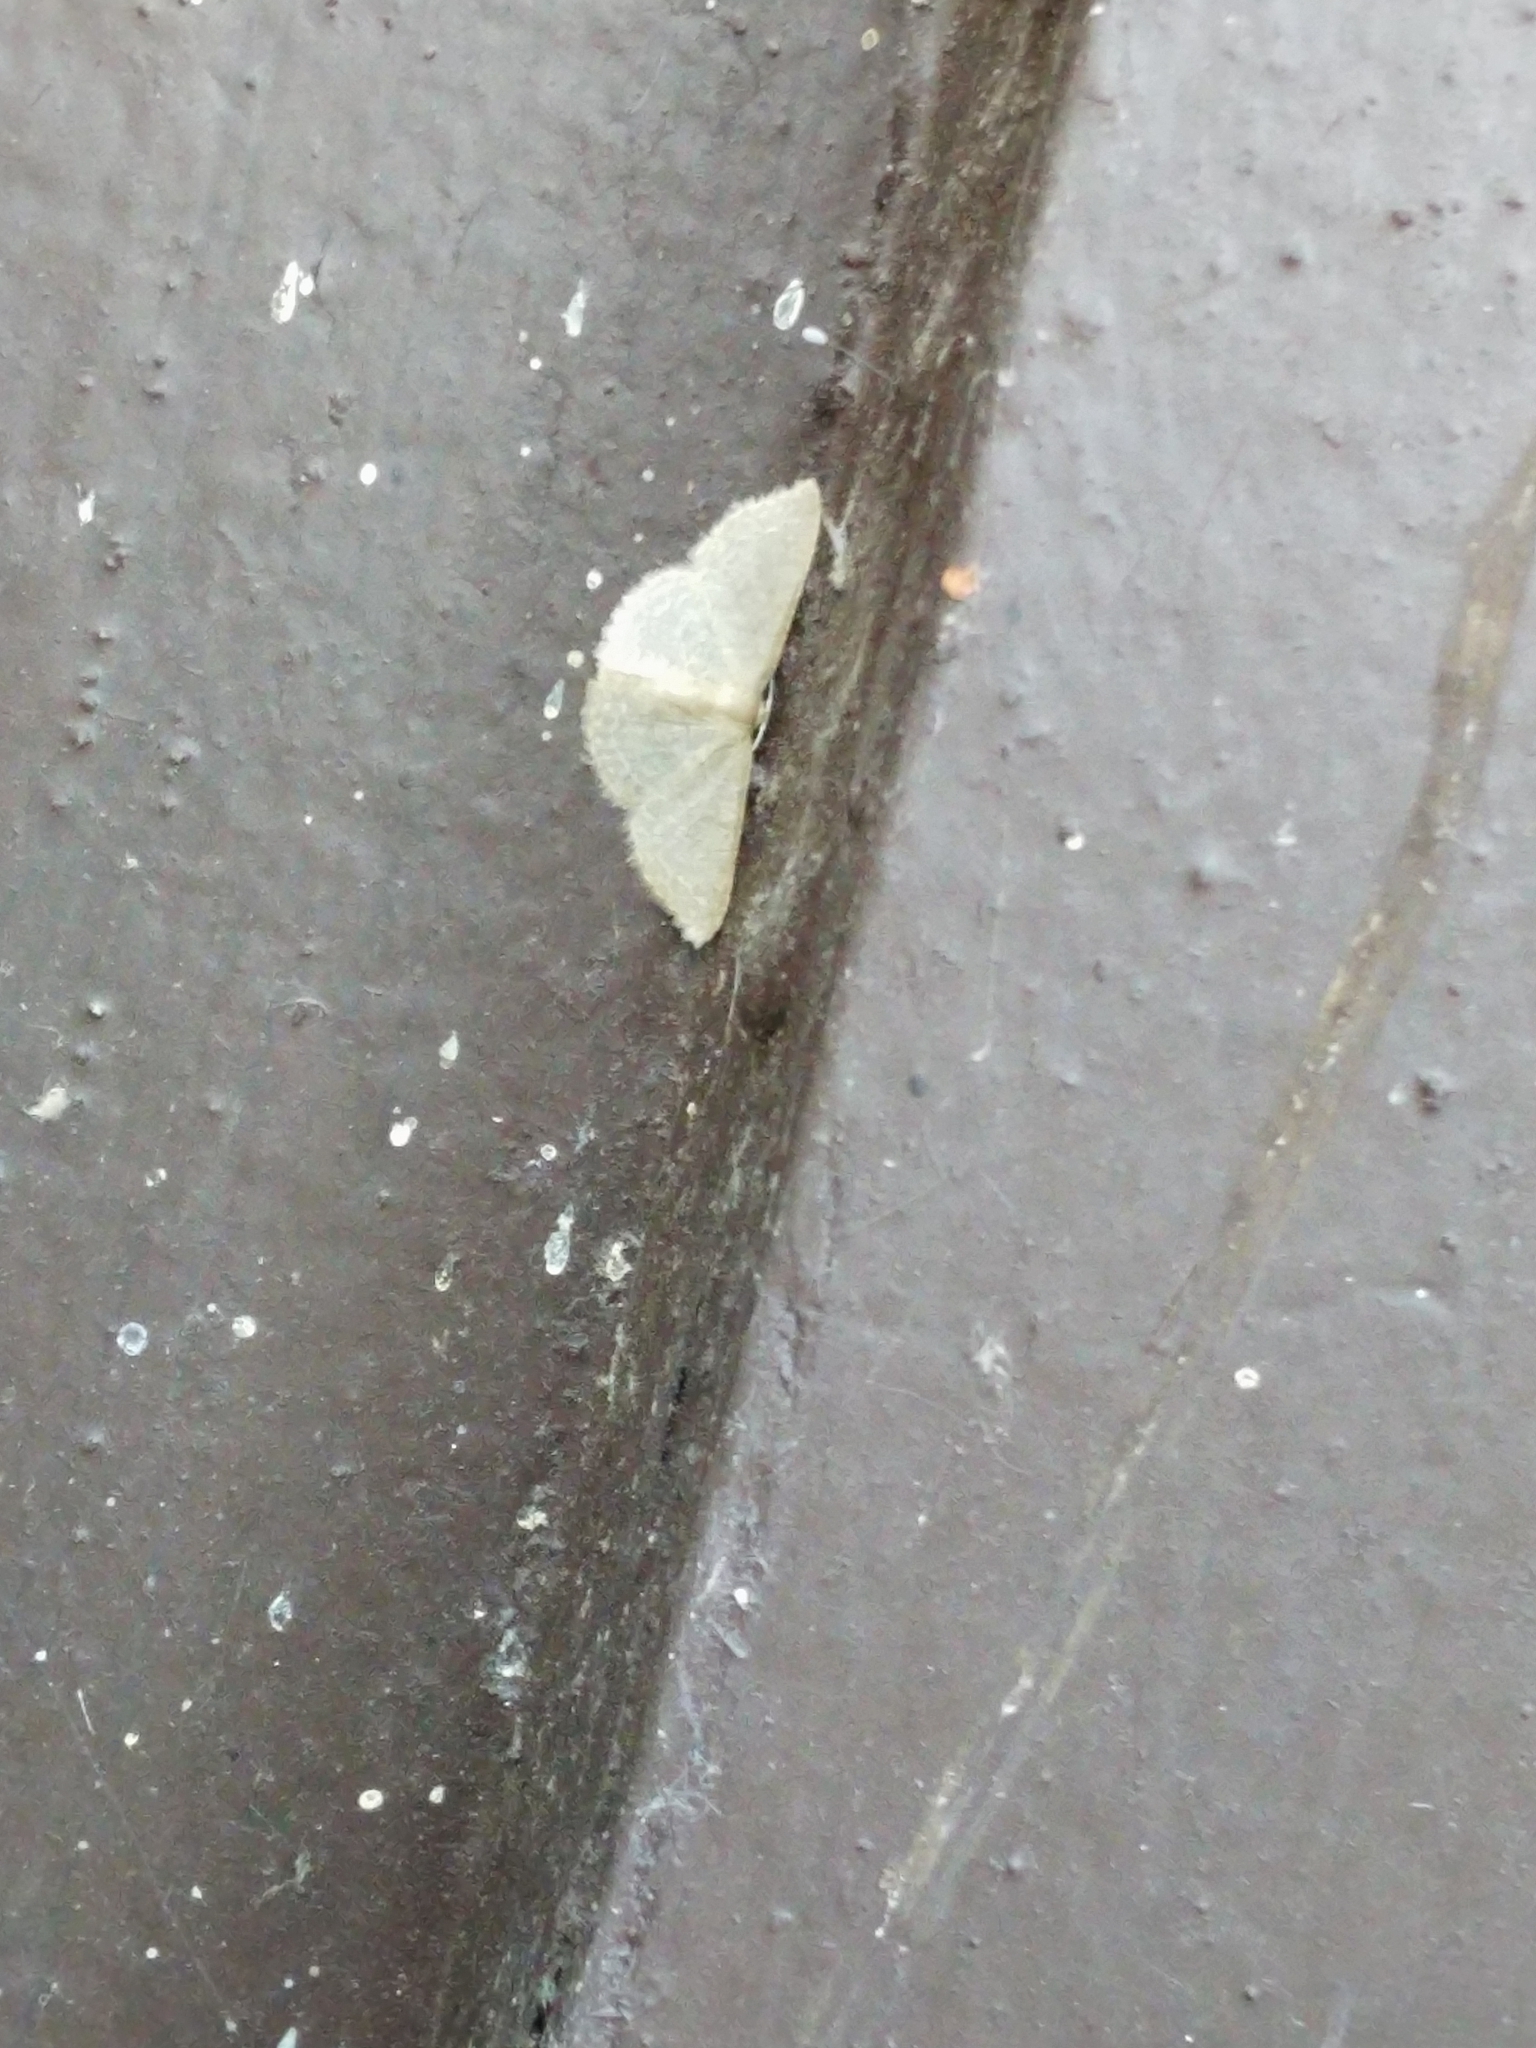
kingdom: Animalia
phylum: Arthropoda
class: Insecta
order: Lepidoptera
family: Geometridae
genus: Pleuroprucha
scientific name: Pleuroprucha insulsaria
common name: Common tan wave
